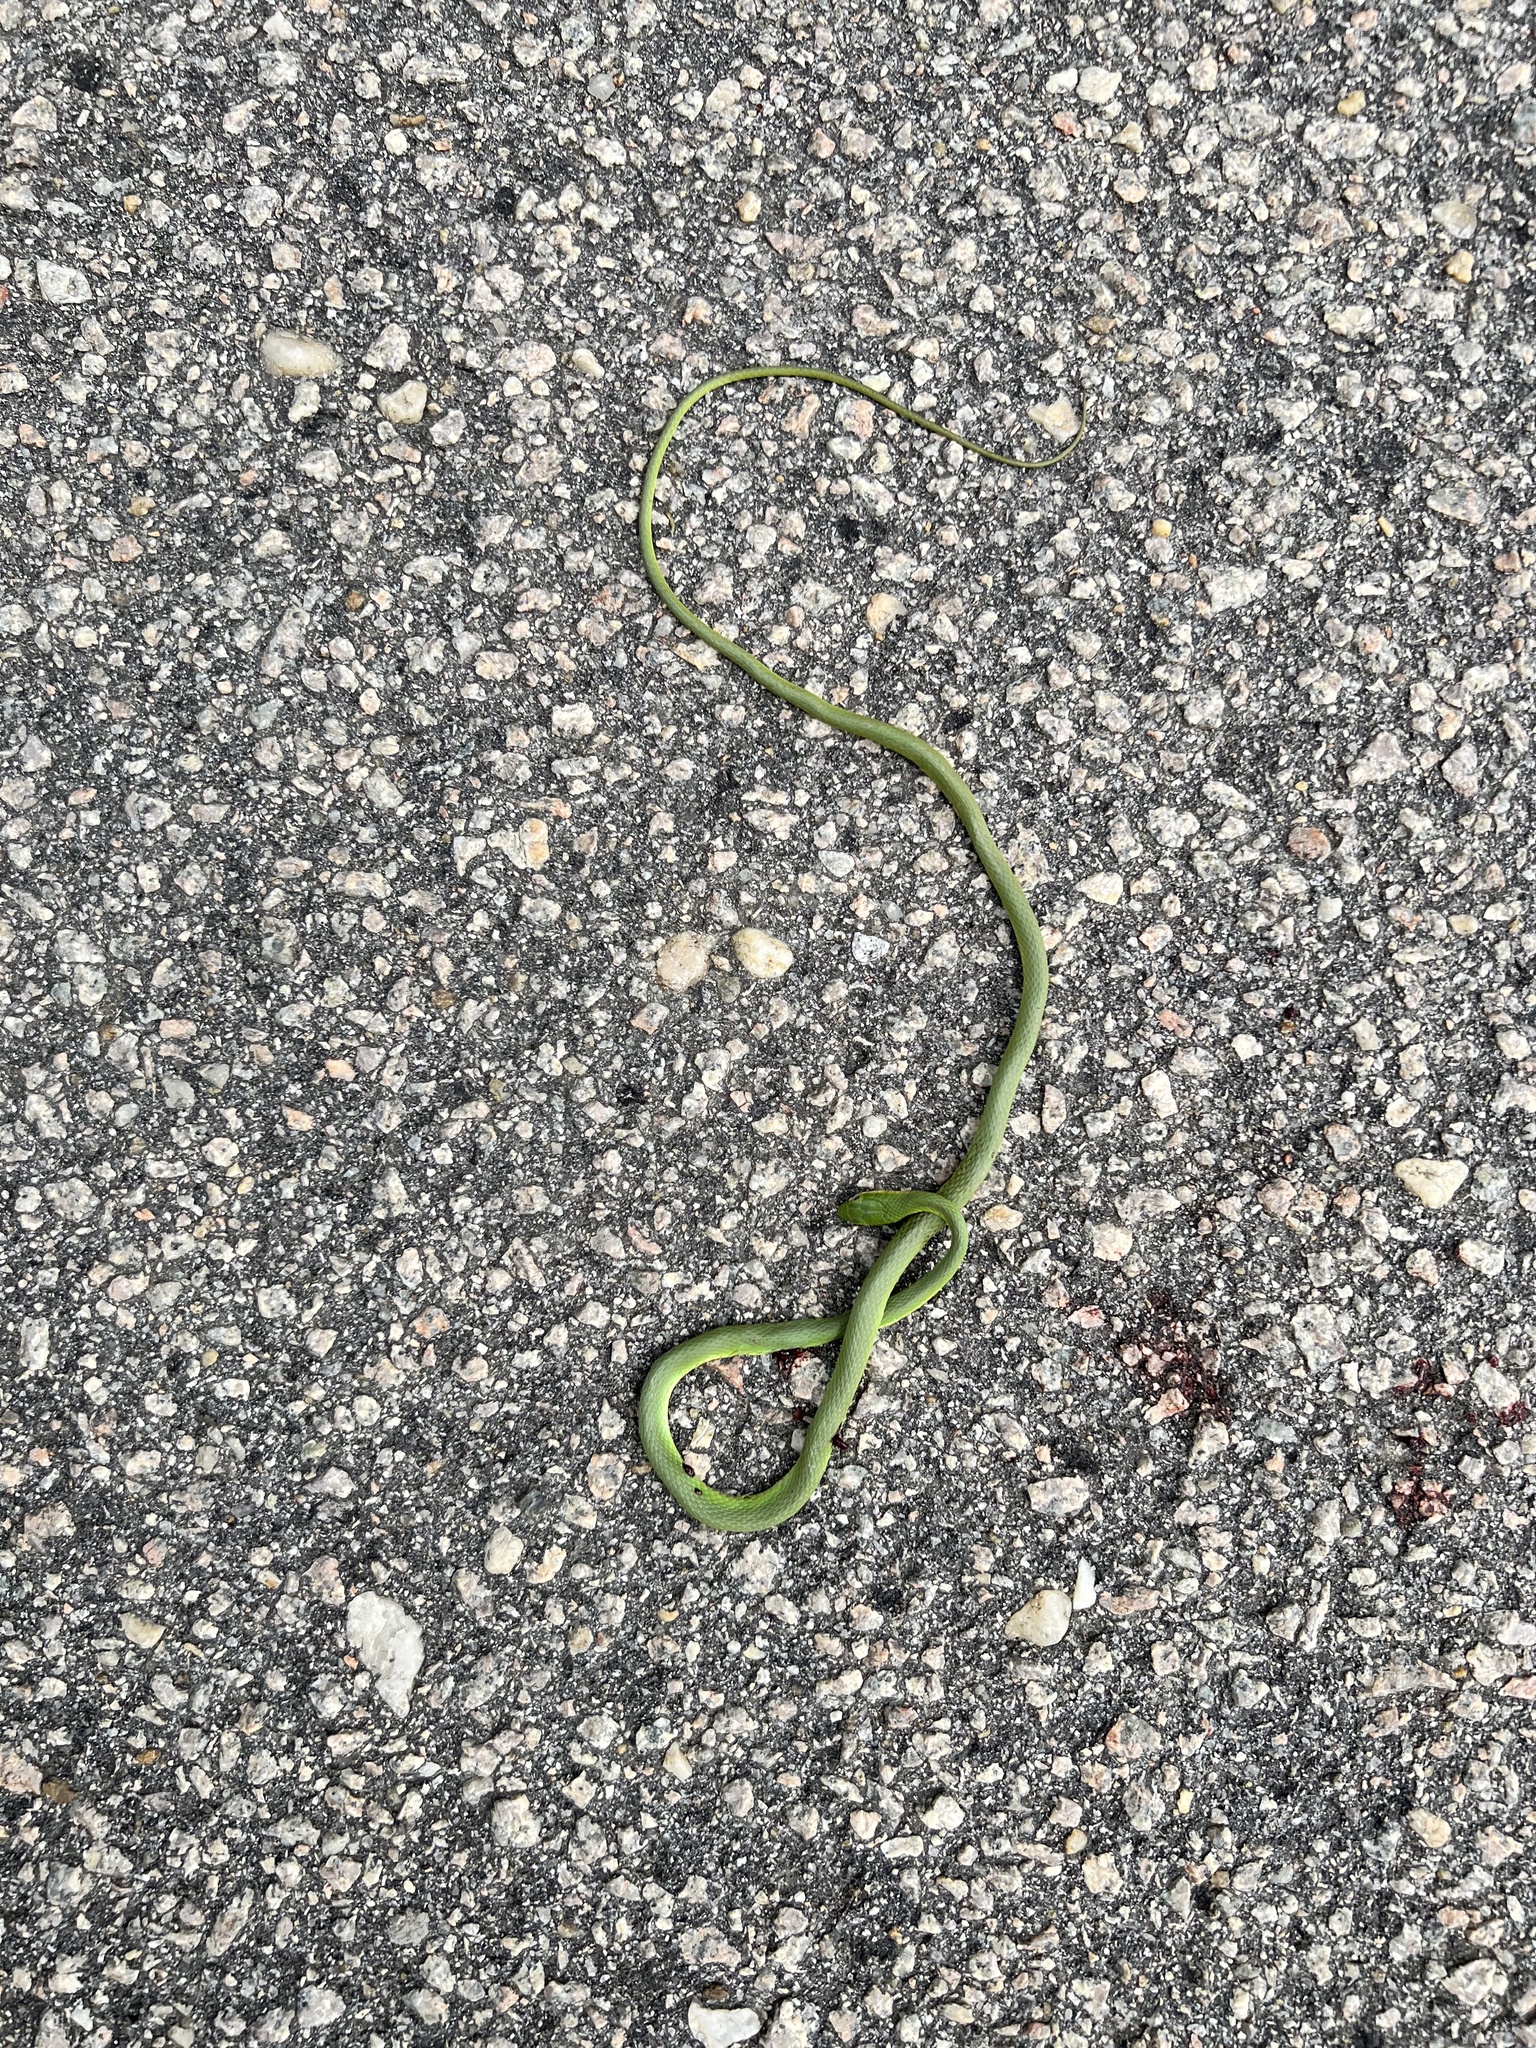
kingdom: Animalia
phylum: Chordata
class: Squamata
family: Colubridae
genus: Opheodrys
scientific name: Opheodrys aestivus
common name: Rough greensnake
